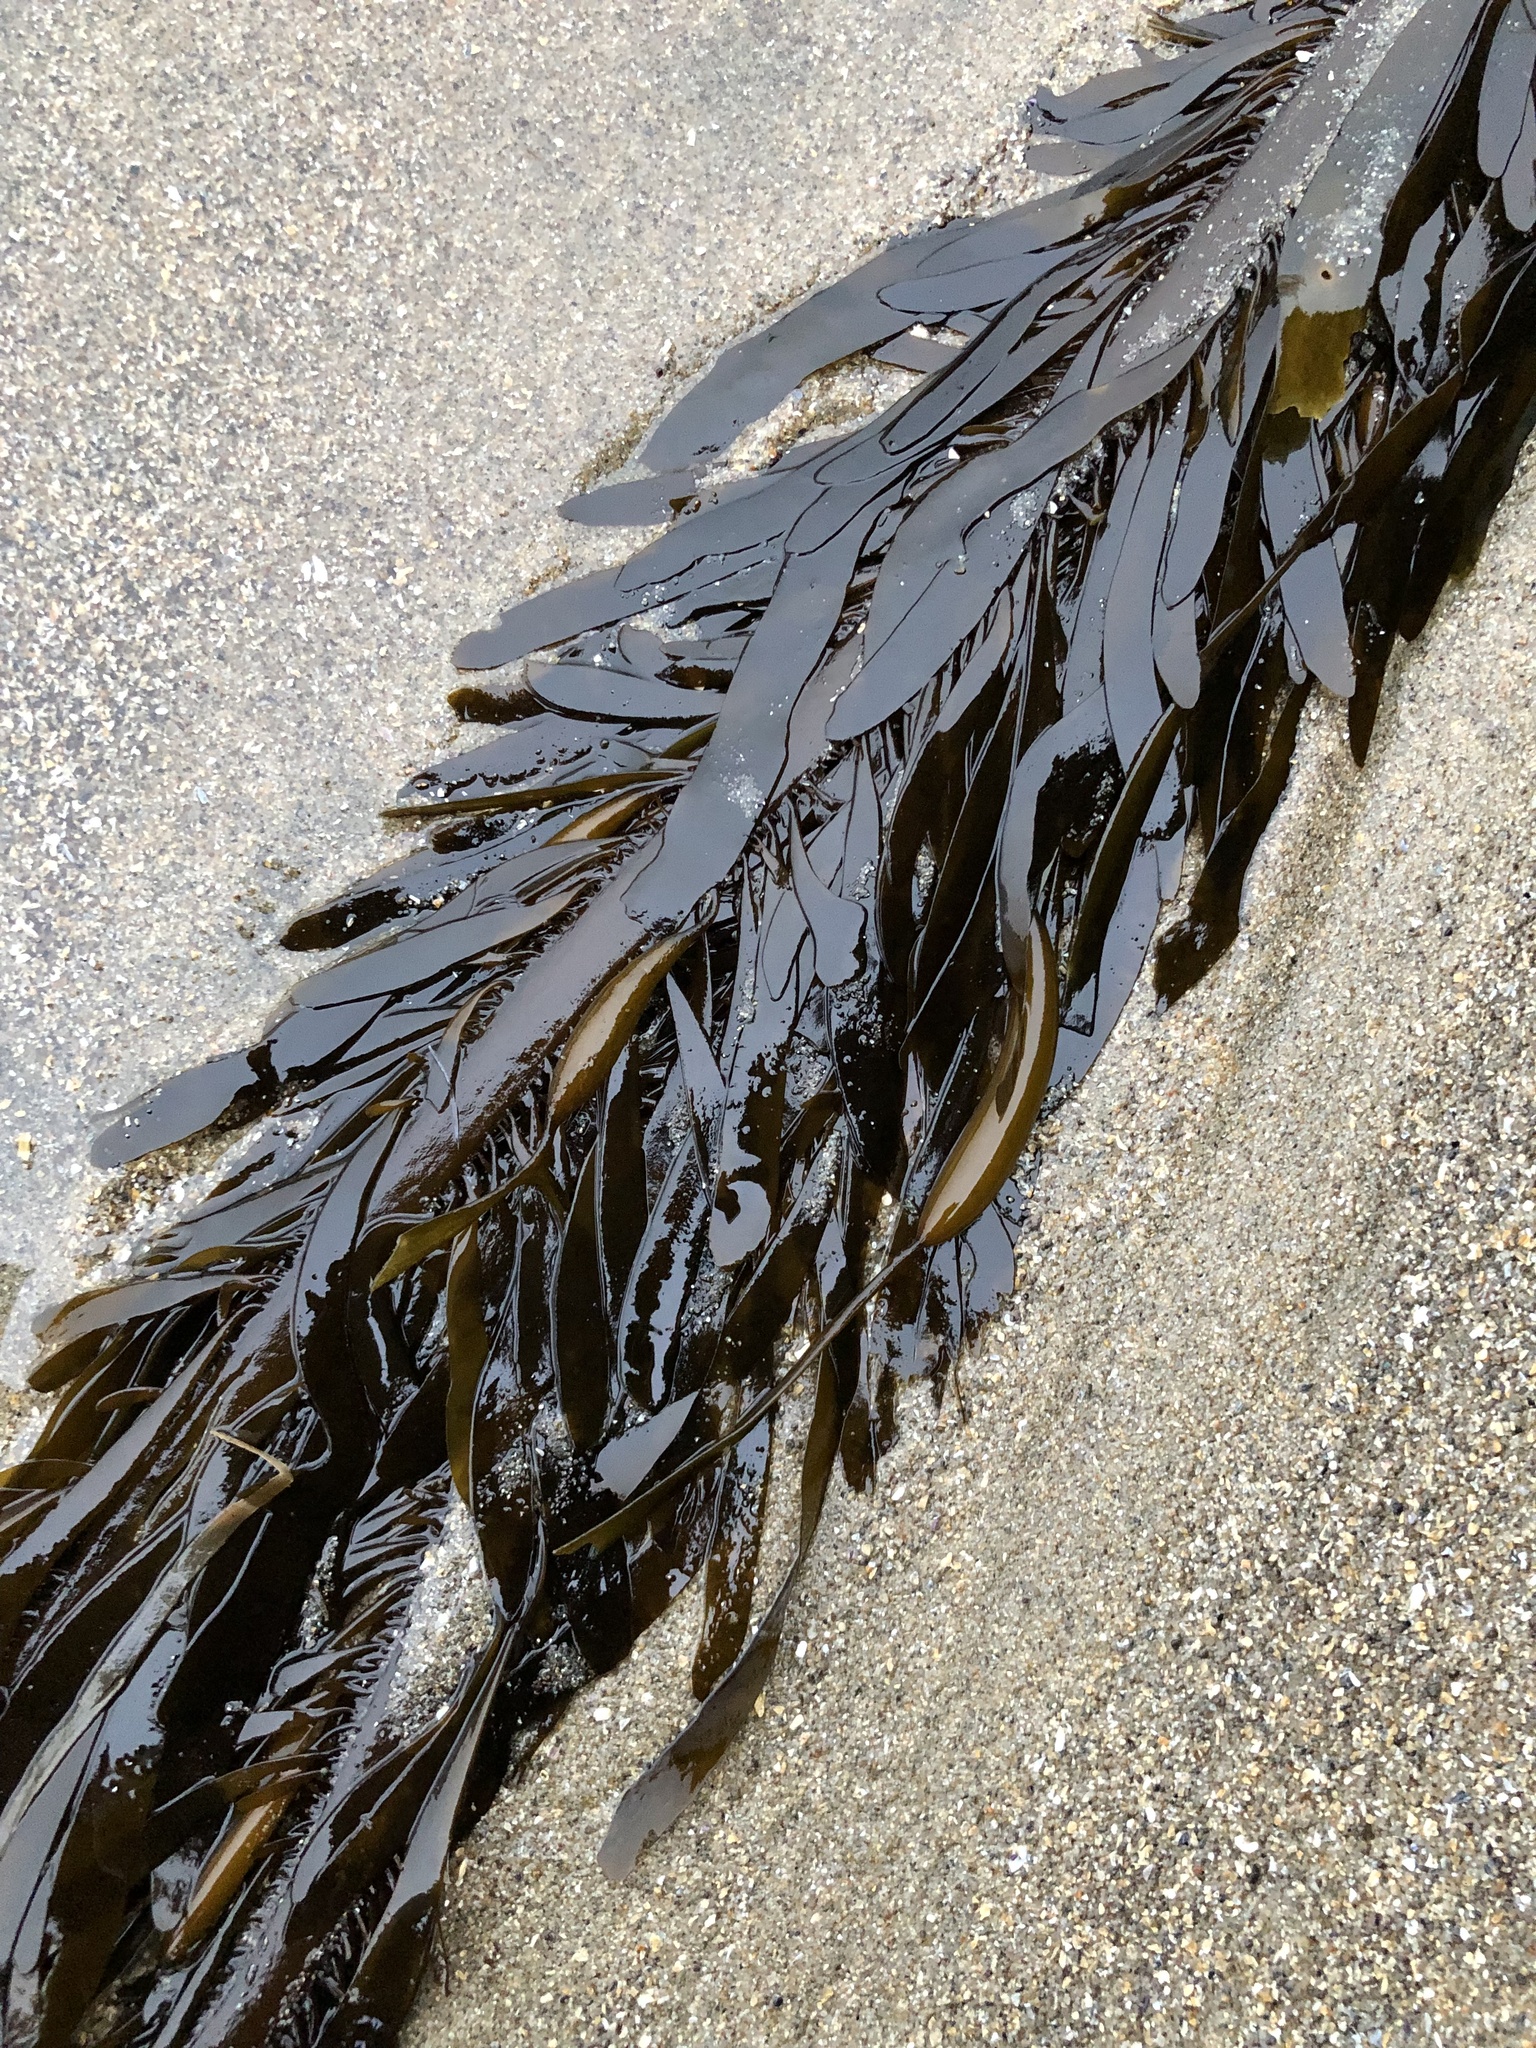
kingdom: Chromista
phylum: Ochrophyta
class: Phaeophyceae
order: Laminariales
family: Lessoniaceae
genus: Egregia
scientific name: Egregia menziesii
